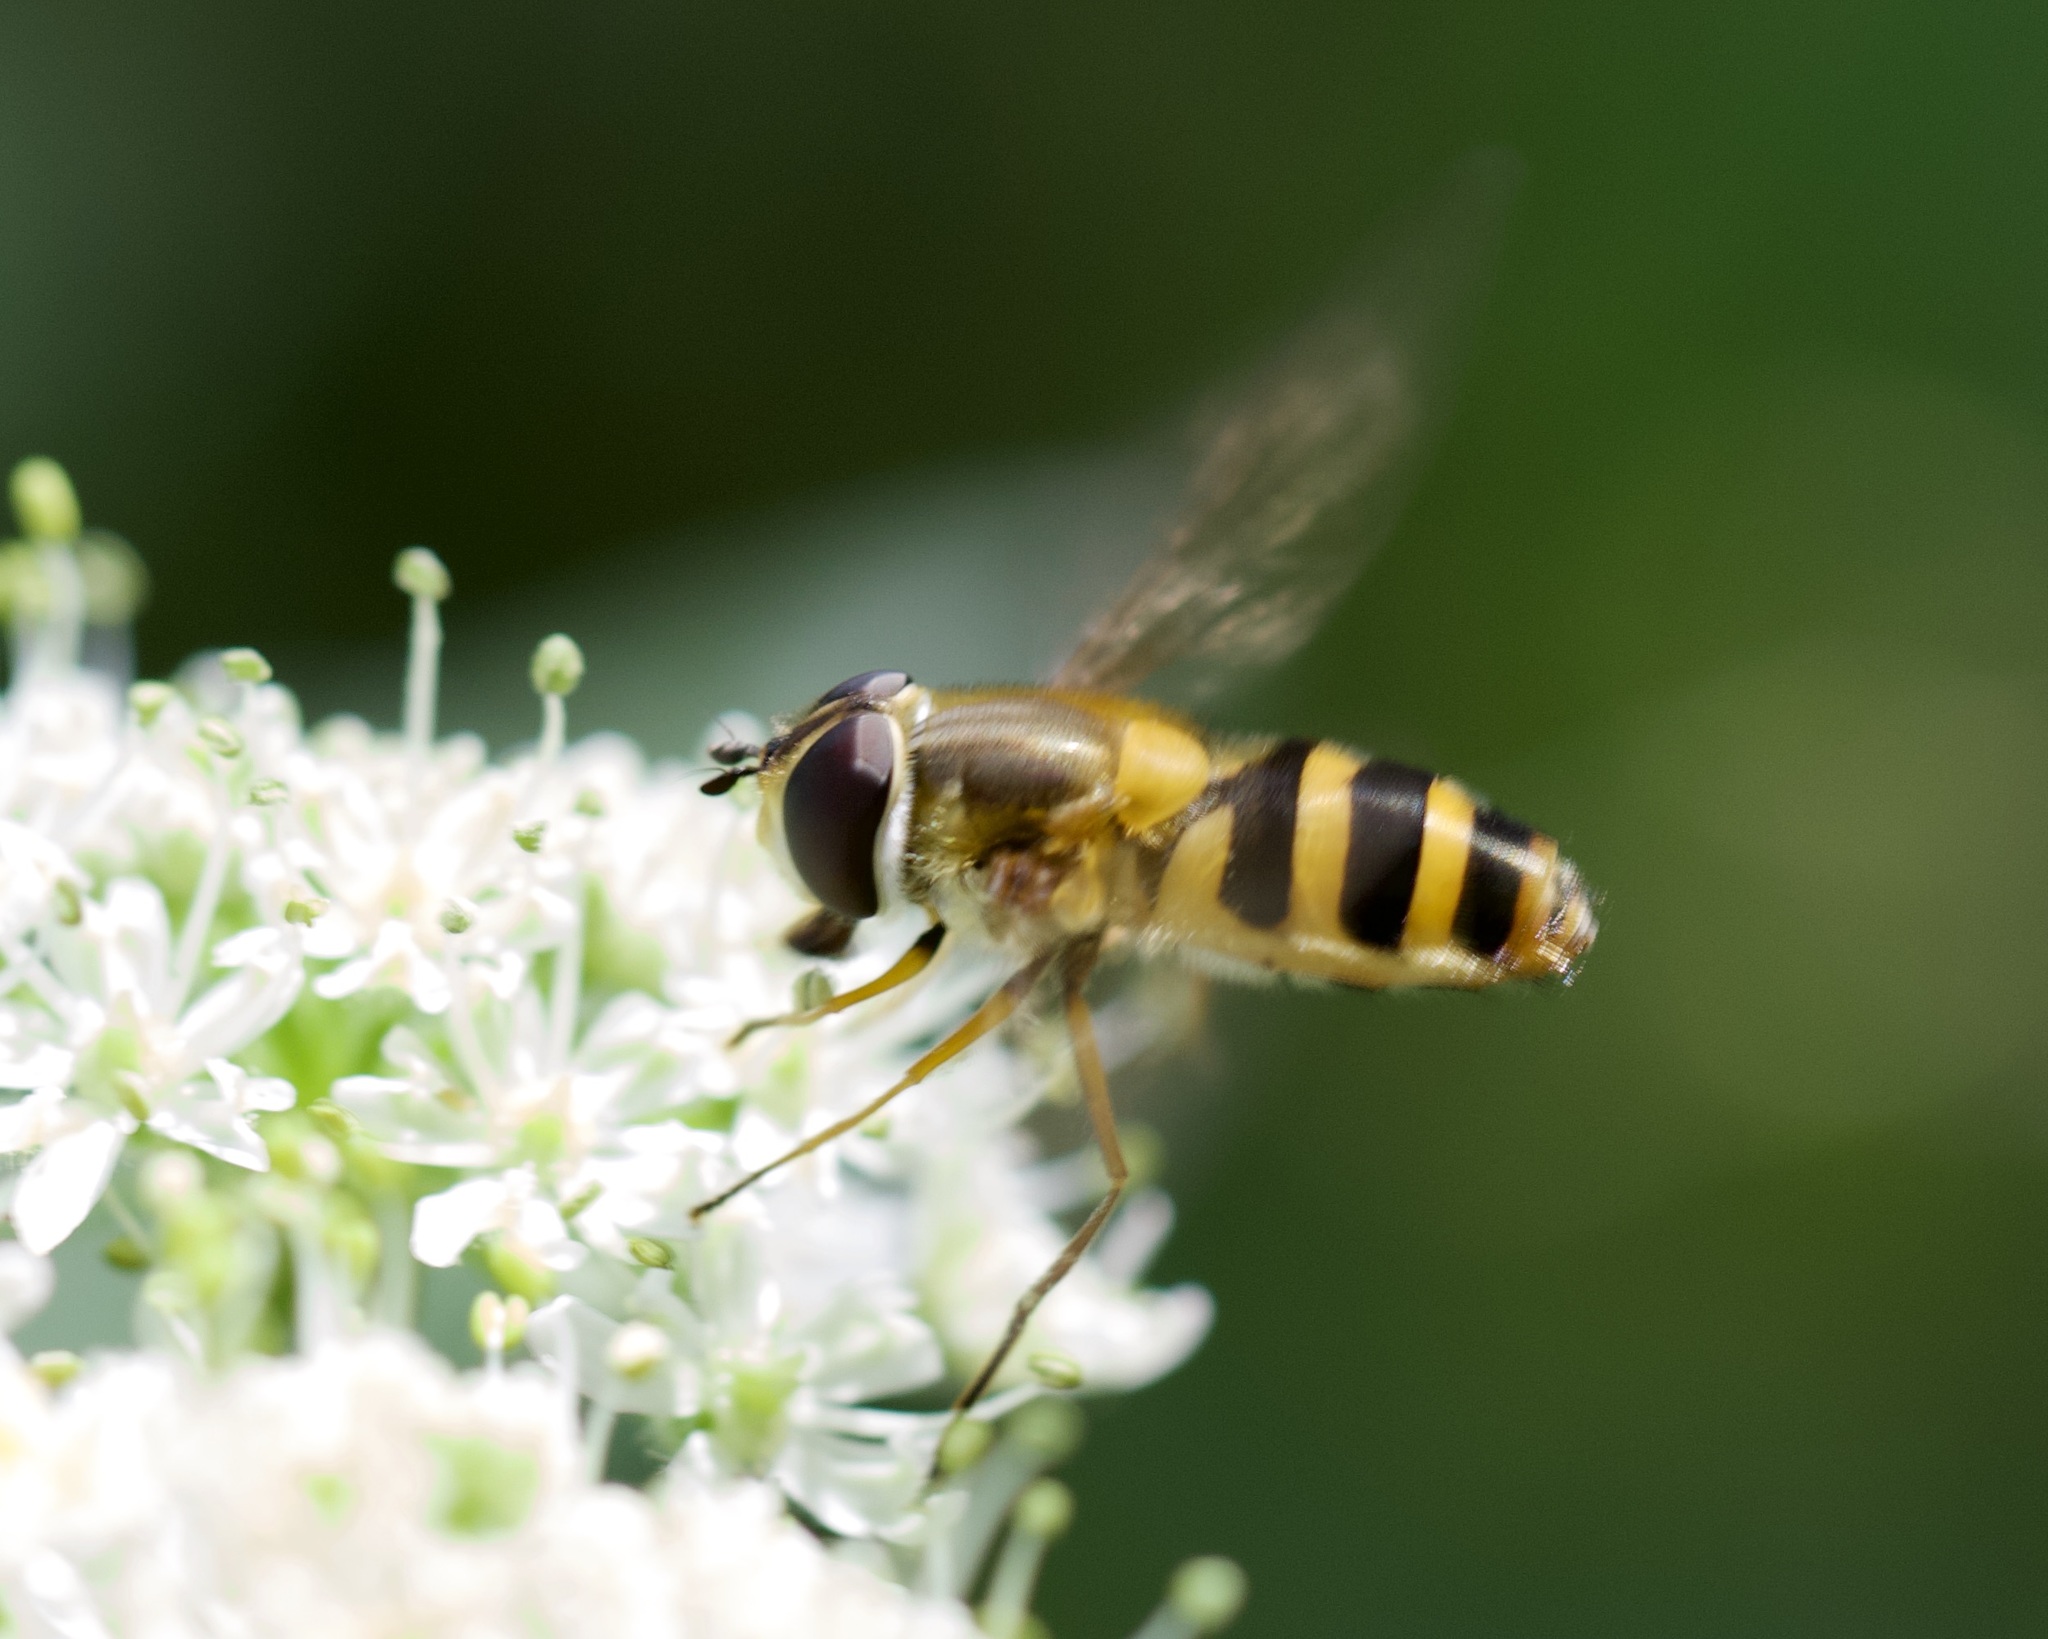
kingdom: Animalia
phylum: Arthropoda
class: Insecta
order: Diptera
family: Syrphidae
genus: Epistrophe
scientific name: Epistrophe grossulariae
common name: Black-horned smoothtail
